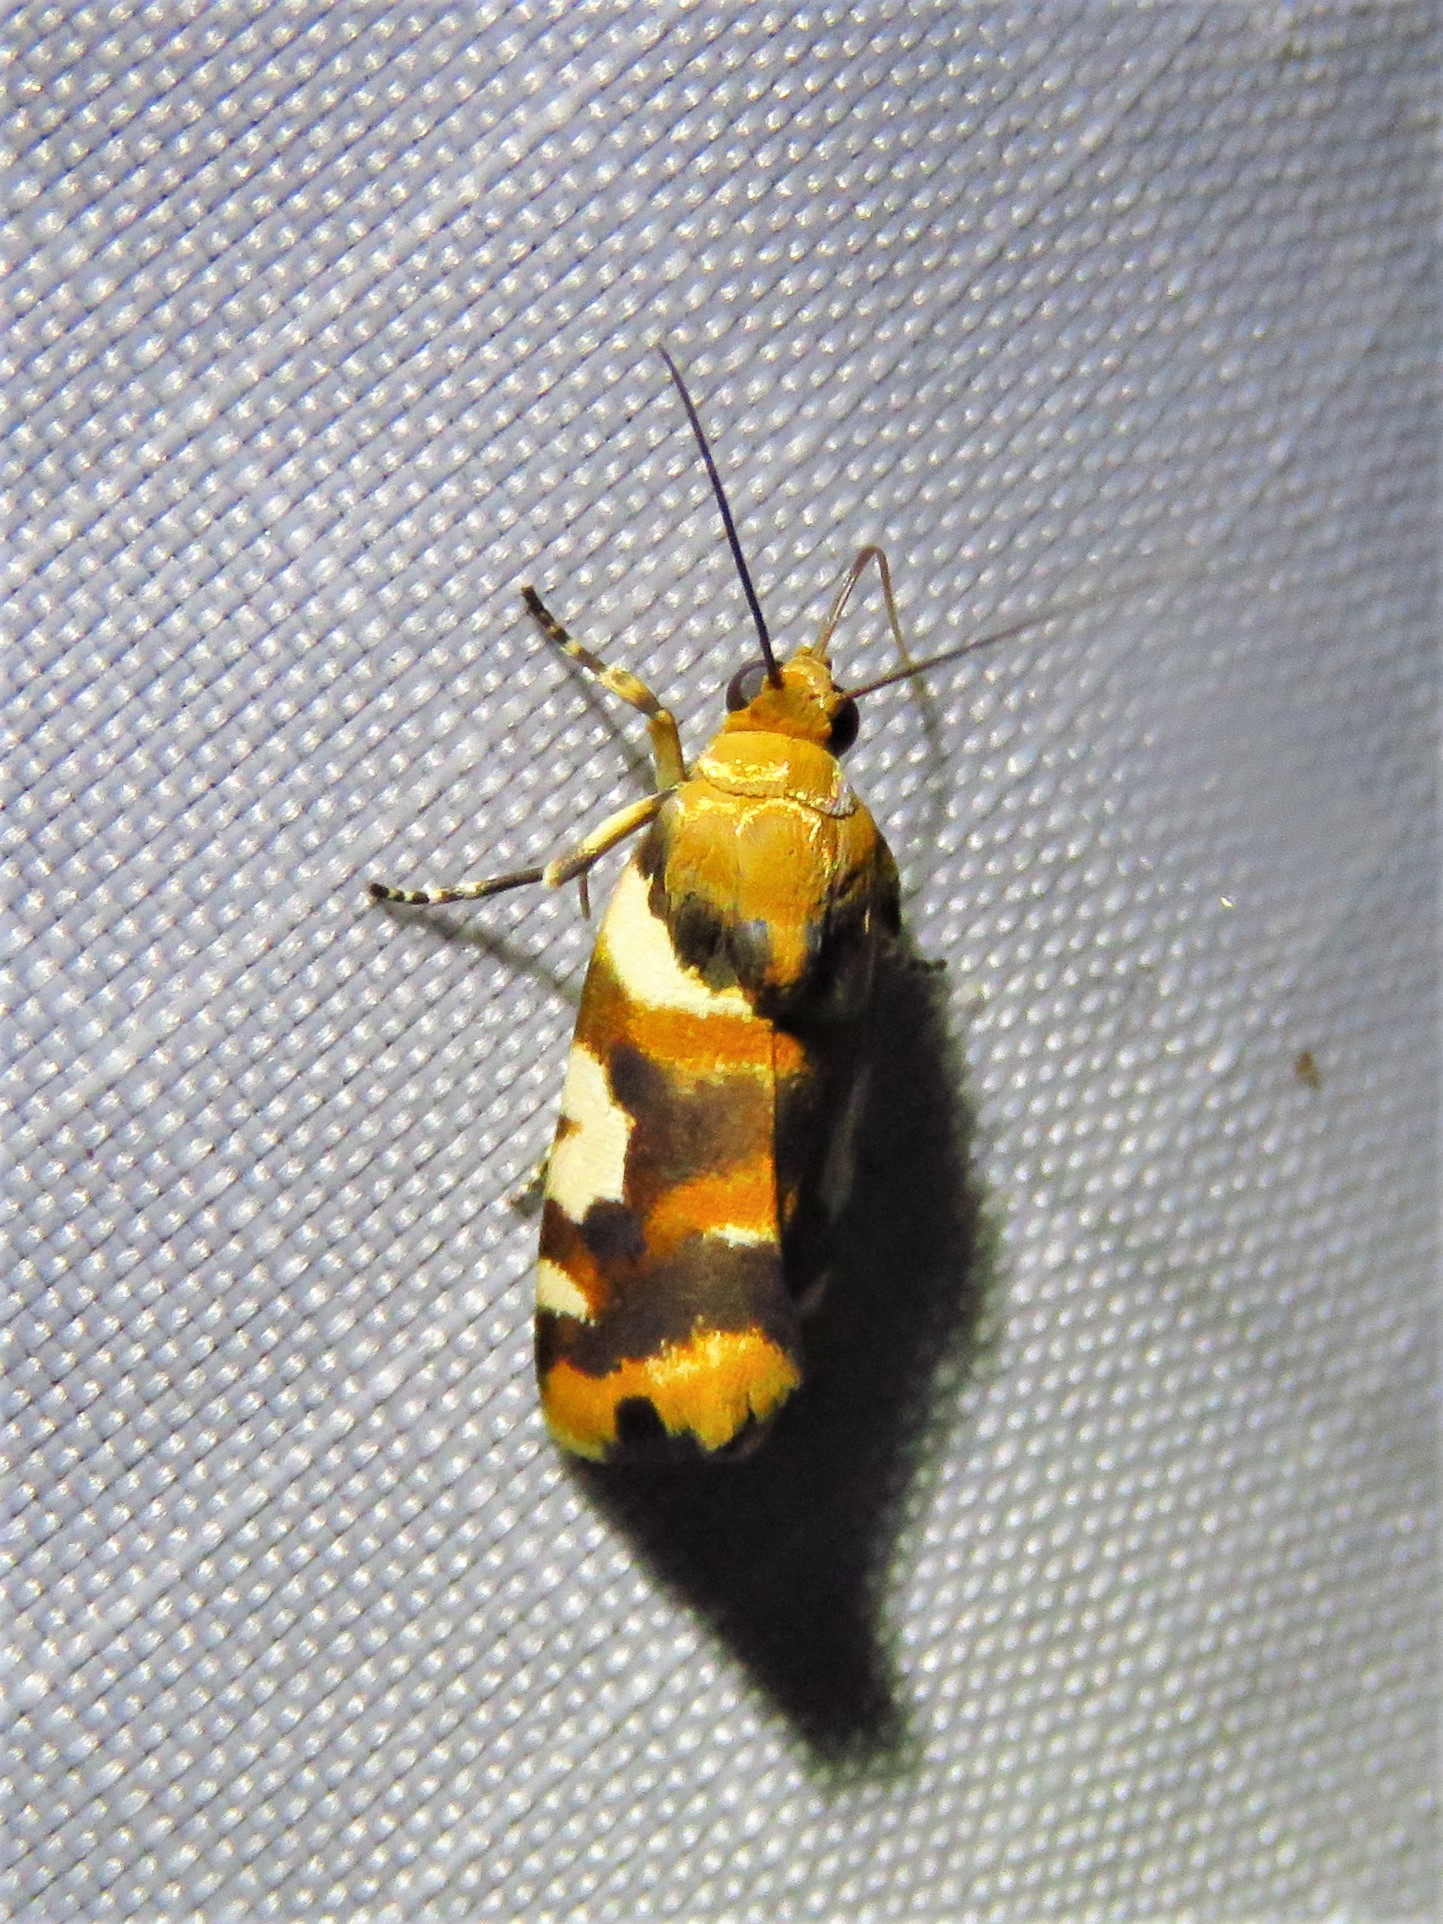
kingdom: Animalia
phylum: Arthropoda
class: Insecta
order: Lepidoptera
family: Noctuidae
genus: Acontia
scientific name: Acontia dama
